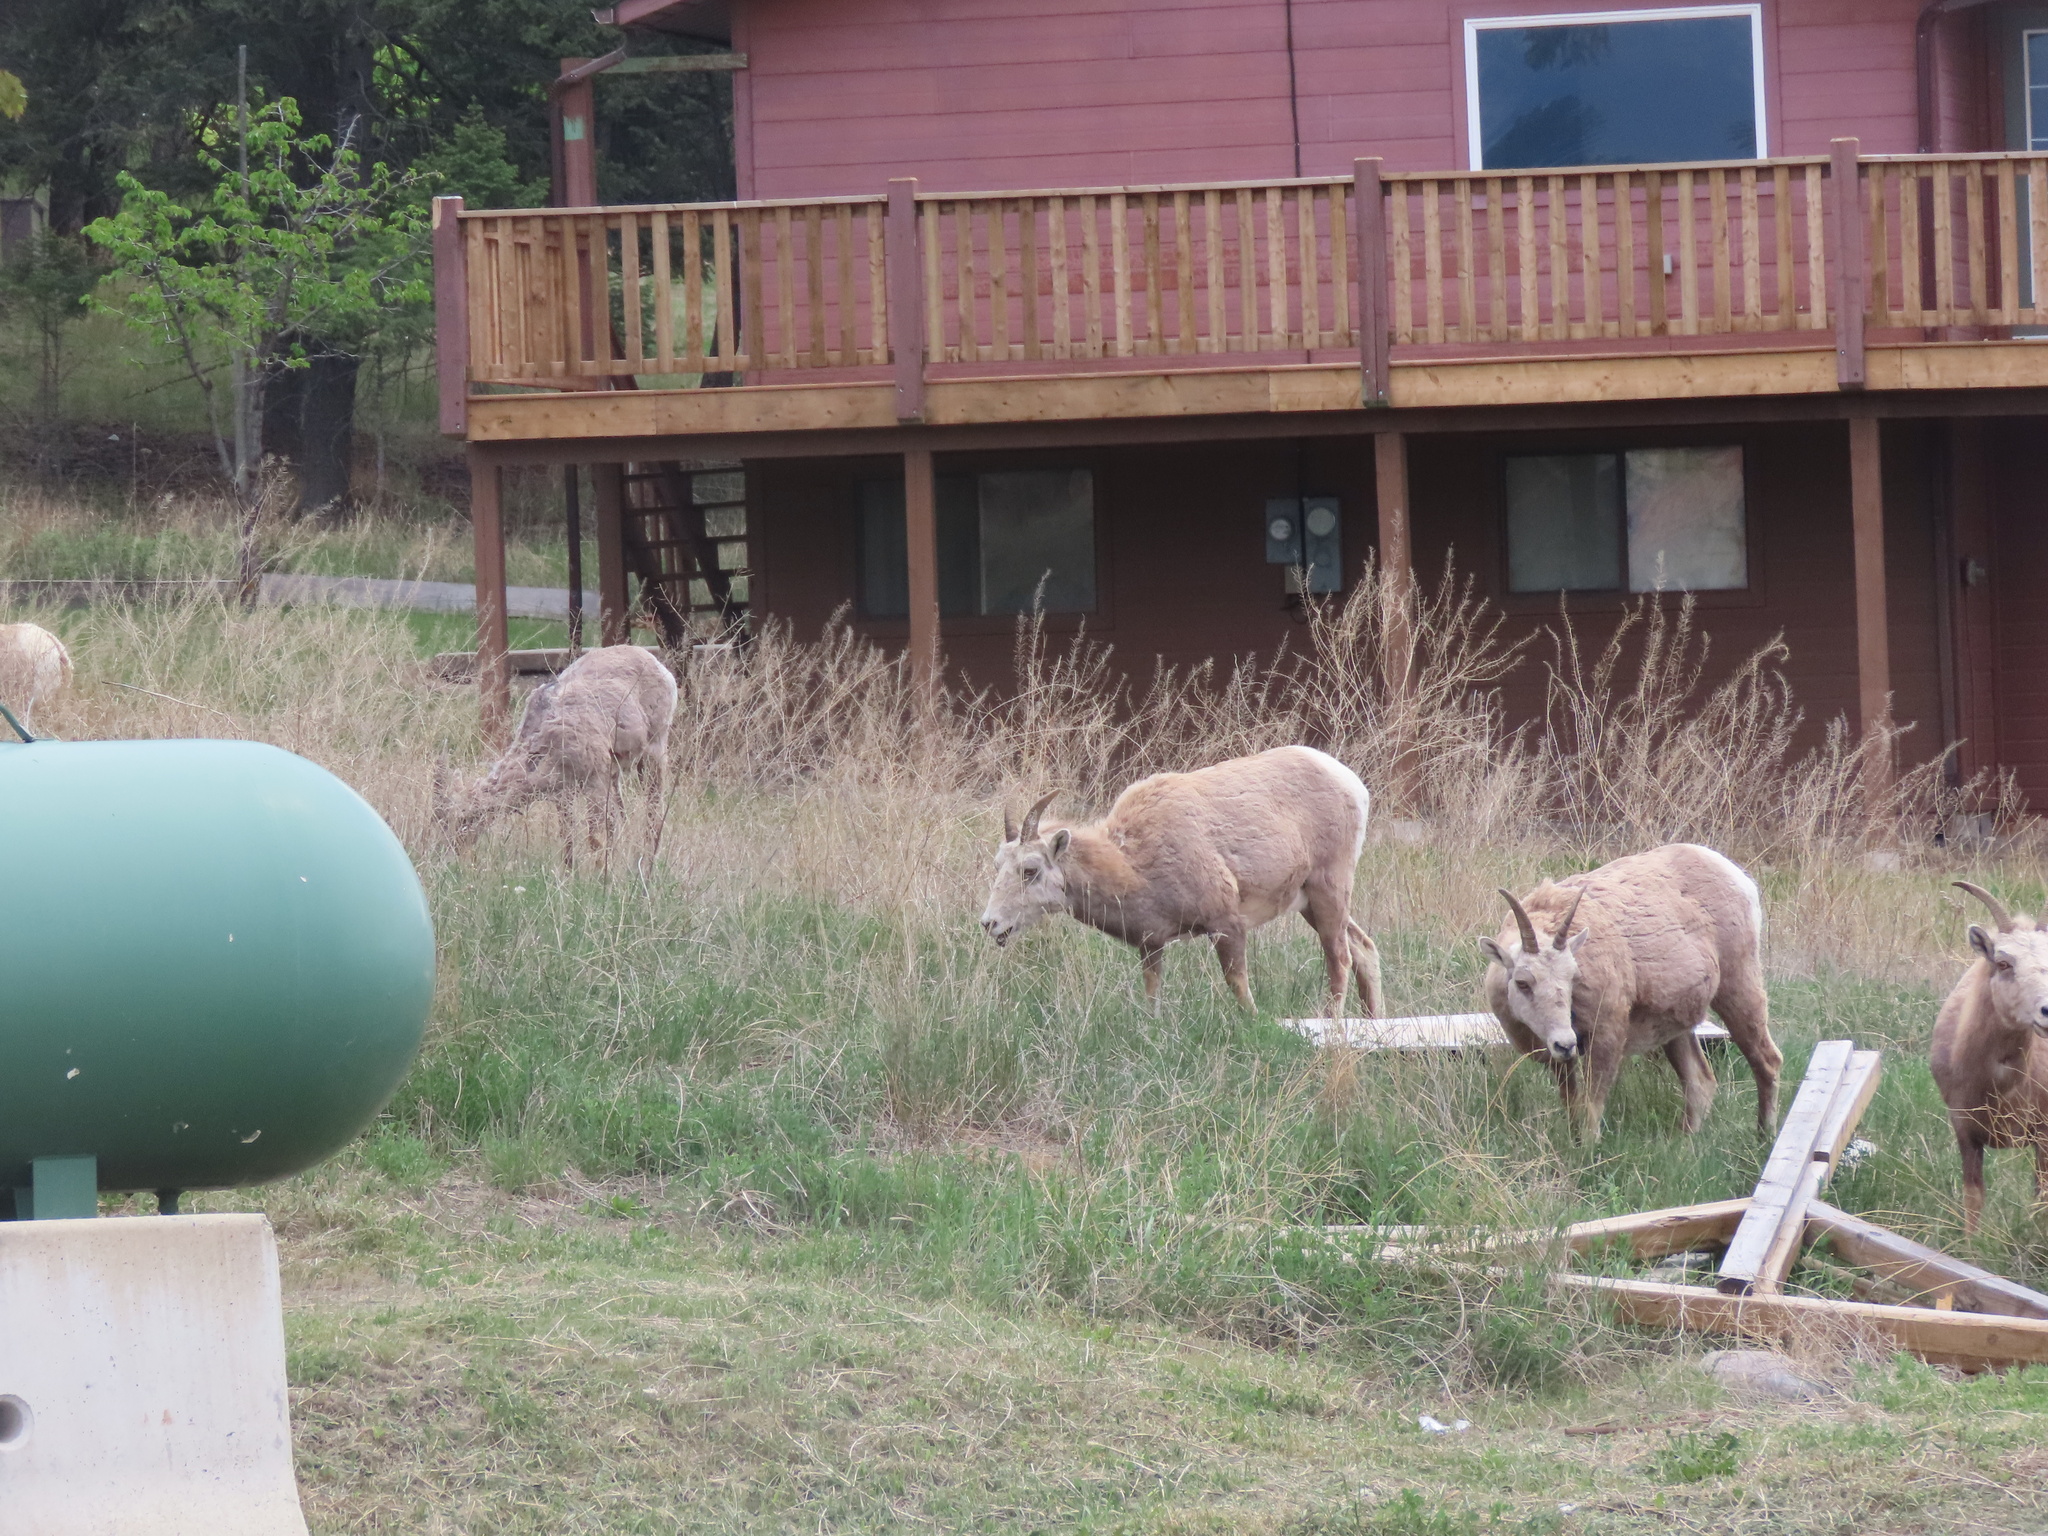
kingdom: Animalia
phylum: Chordata
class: Mammalia
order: Artiodactyla
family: Bovidae
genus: Ovis
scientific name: Ovis canadensis
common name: Bighorn sheep
